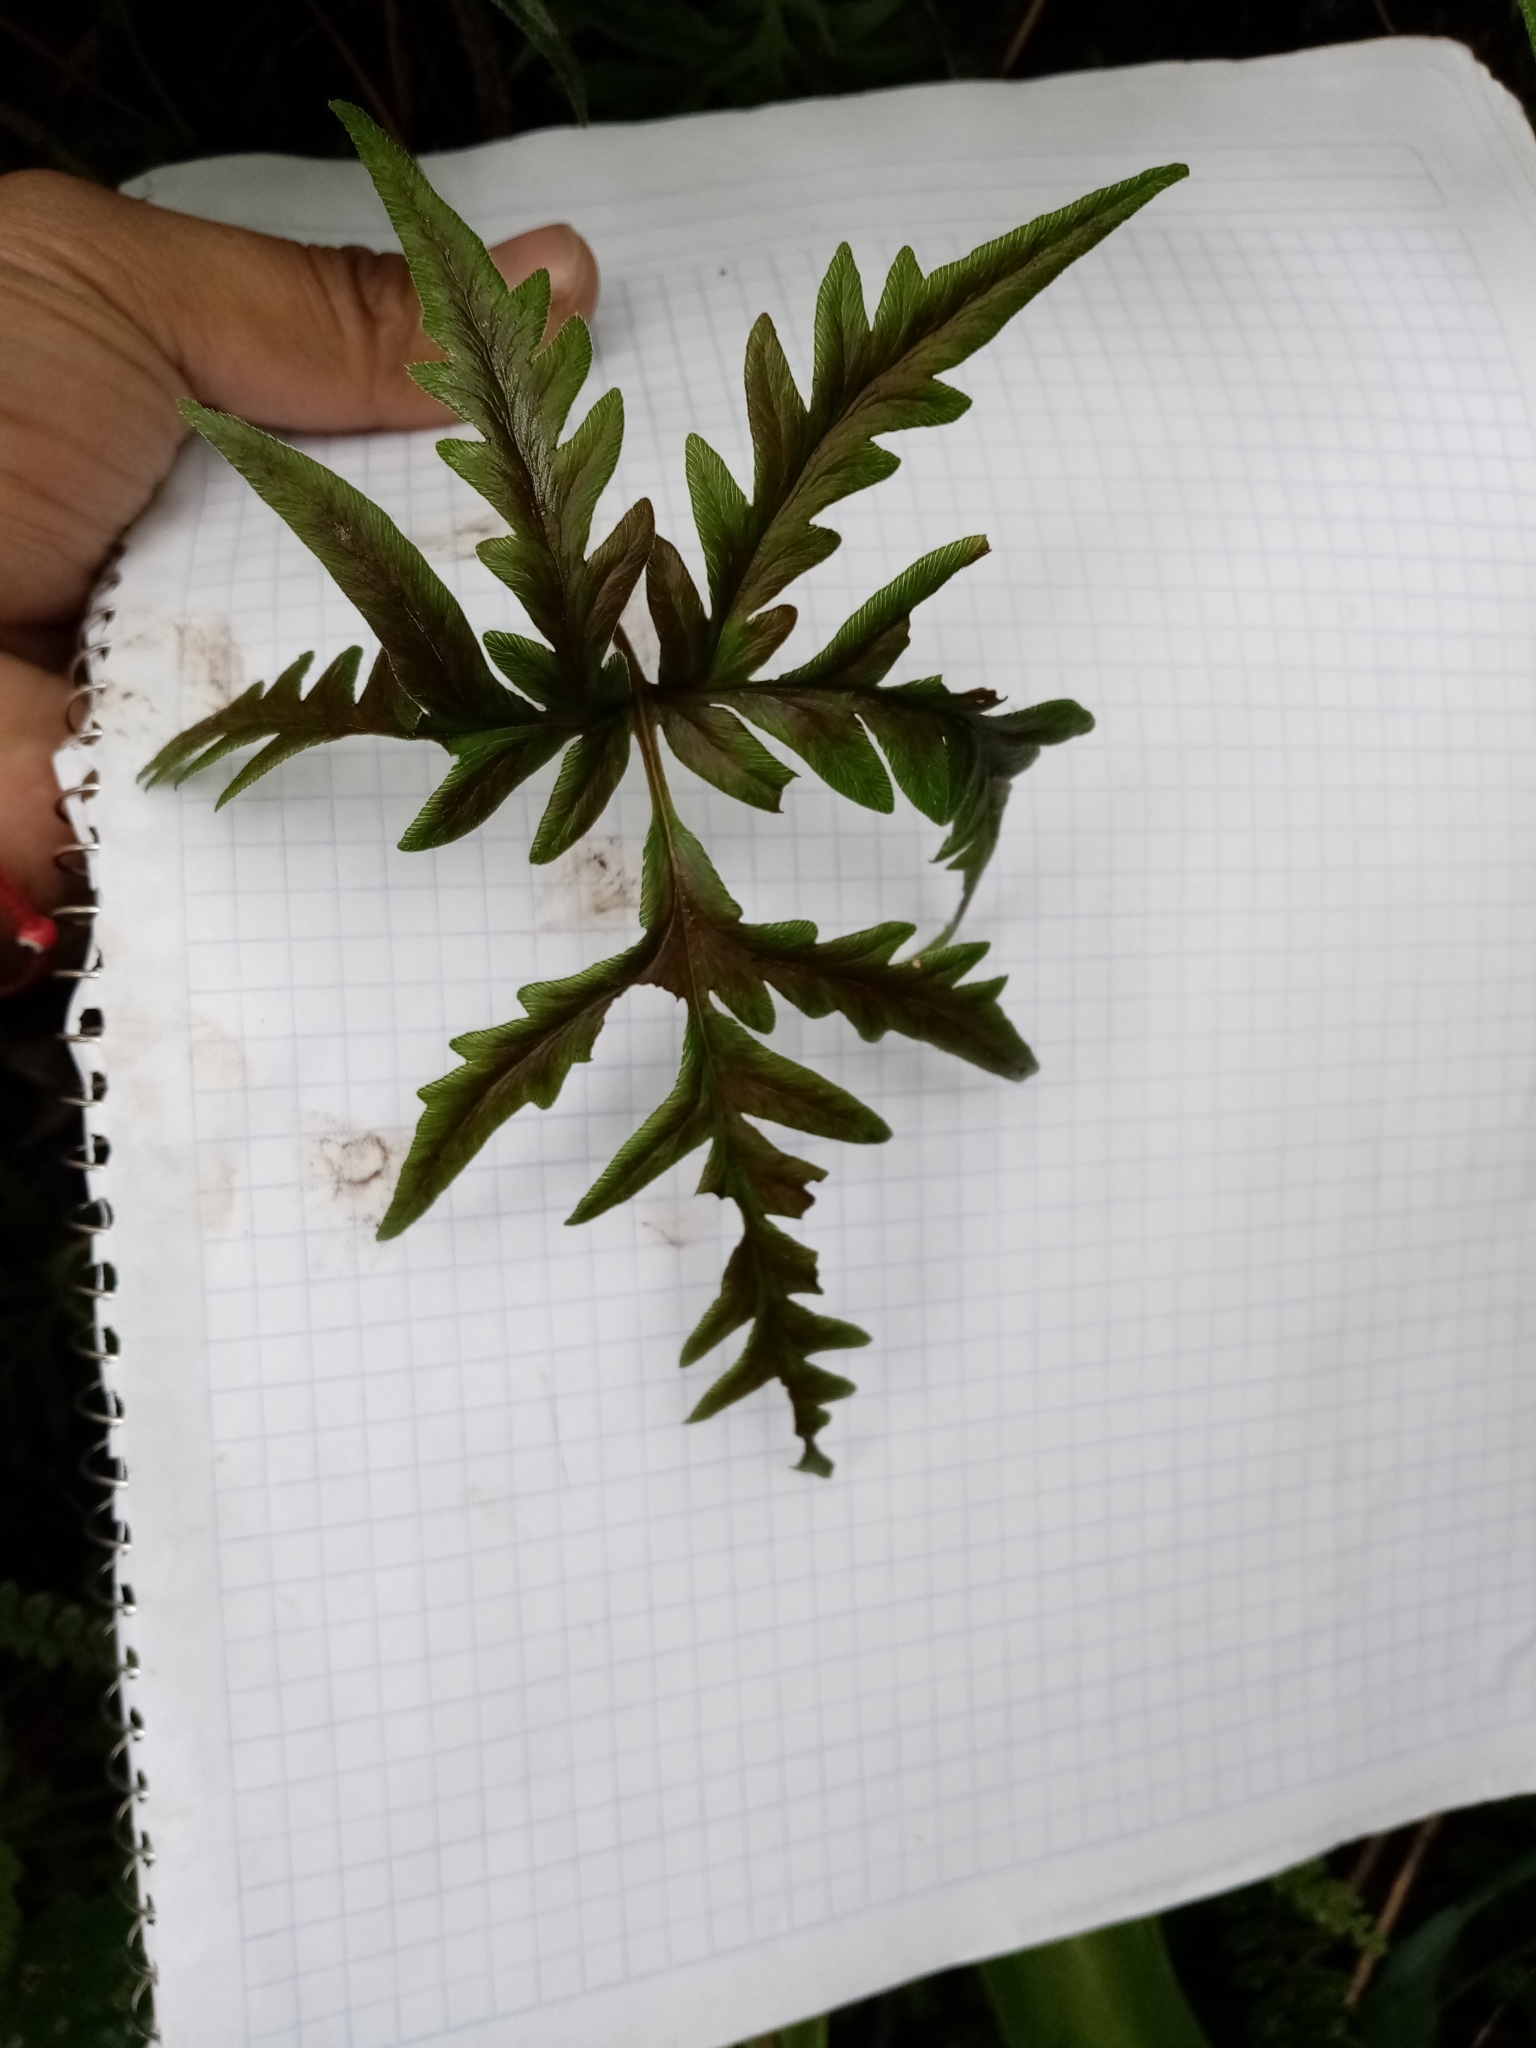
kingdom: Plantae
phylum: Tracheophyta
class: Polypodiopsida
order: Polypodiales
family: Pteridaceae
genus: Bommeria
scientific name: Bommeria pedata
